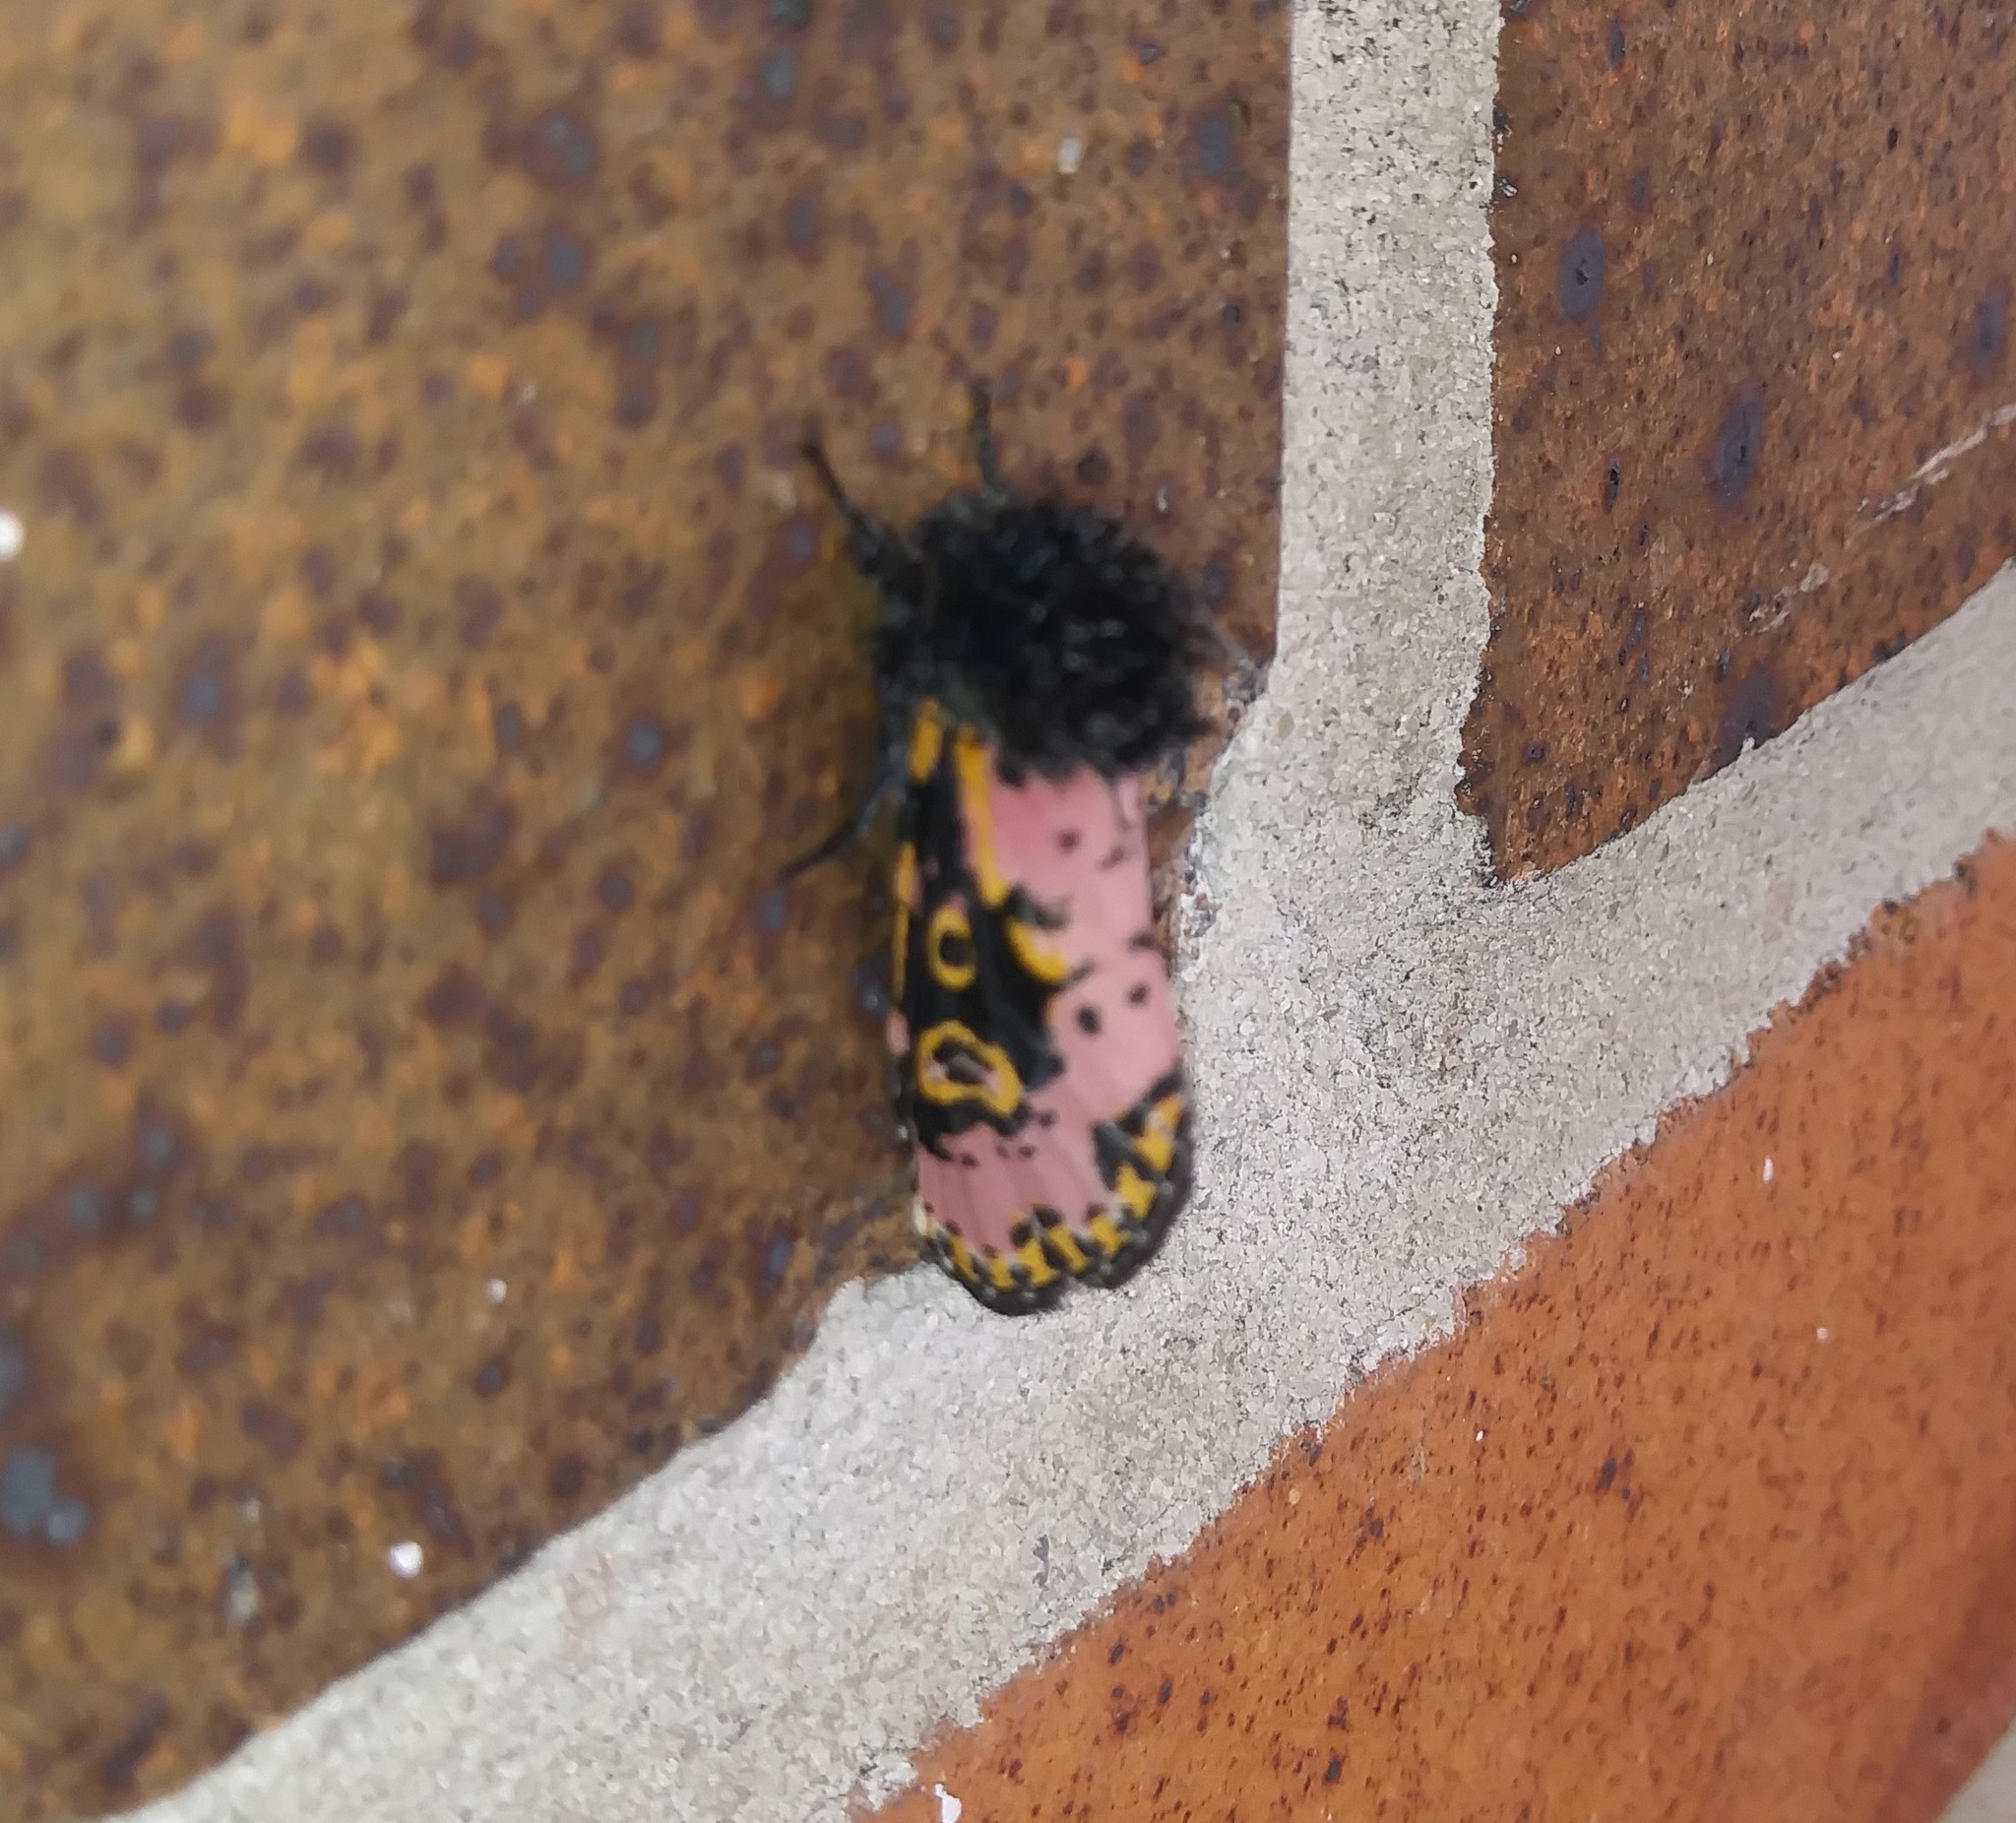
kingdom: Animalia
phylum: Arthropoda
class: Insecta
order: Lepidoptera
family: Noctuidae
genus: Xanthopastis
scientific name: Xanthopastis regnatrix
